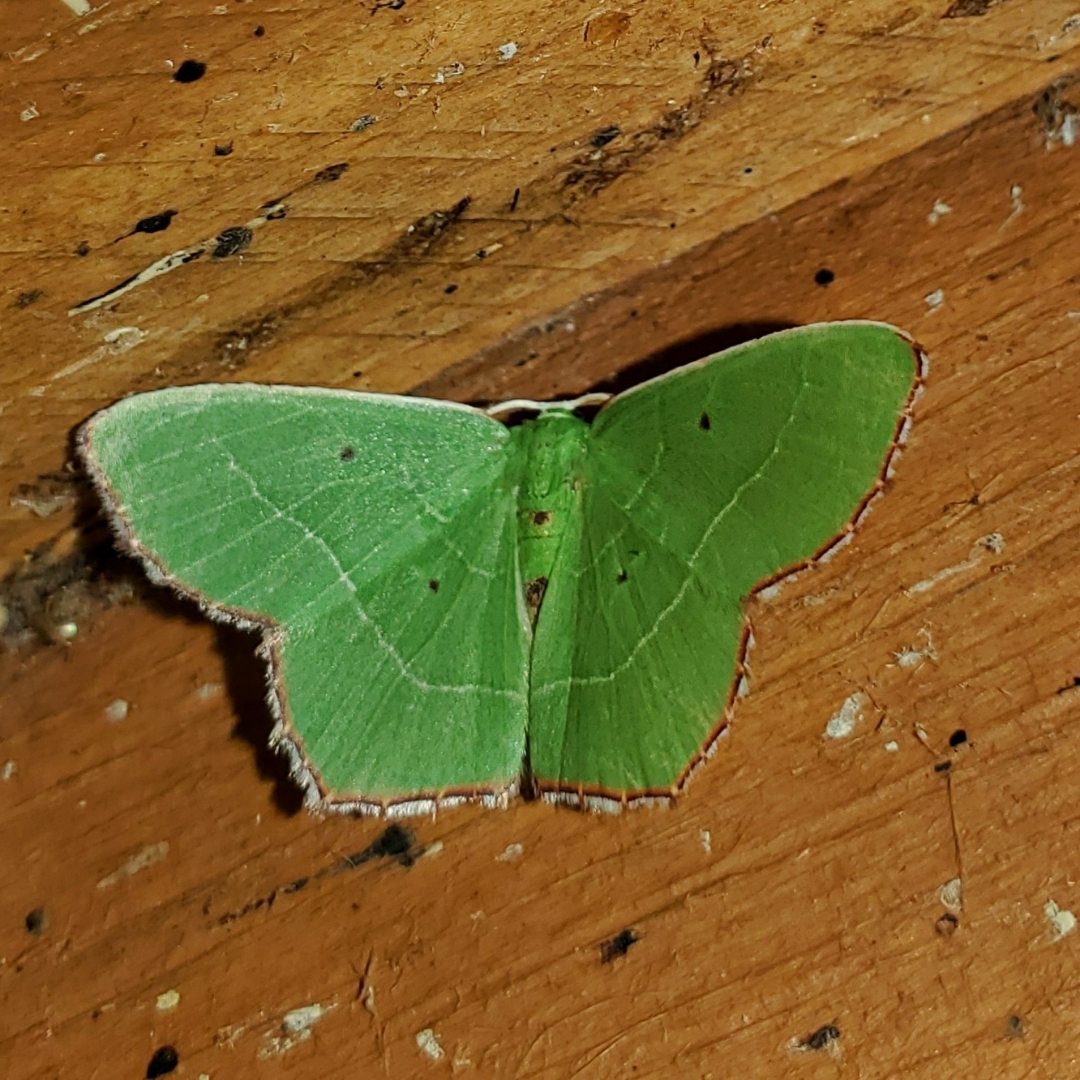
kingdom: Animalia
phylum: Arthropoda
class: Insecta
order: Lepidoptera
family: Geometridae
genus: Nemoria
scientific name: Nemoria saturiba
